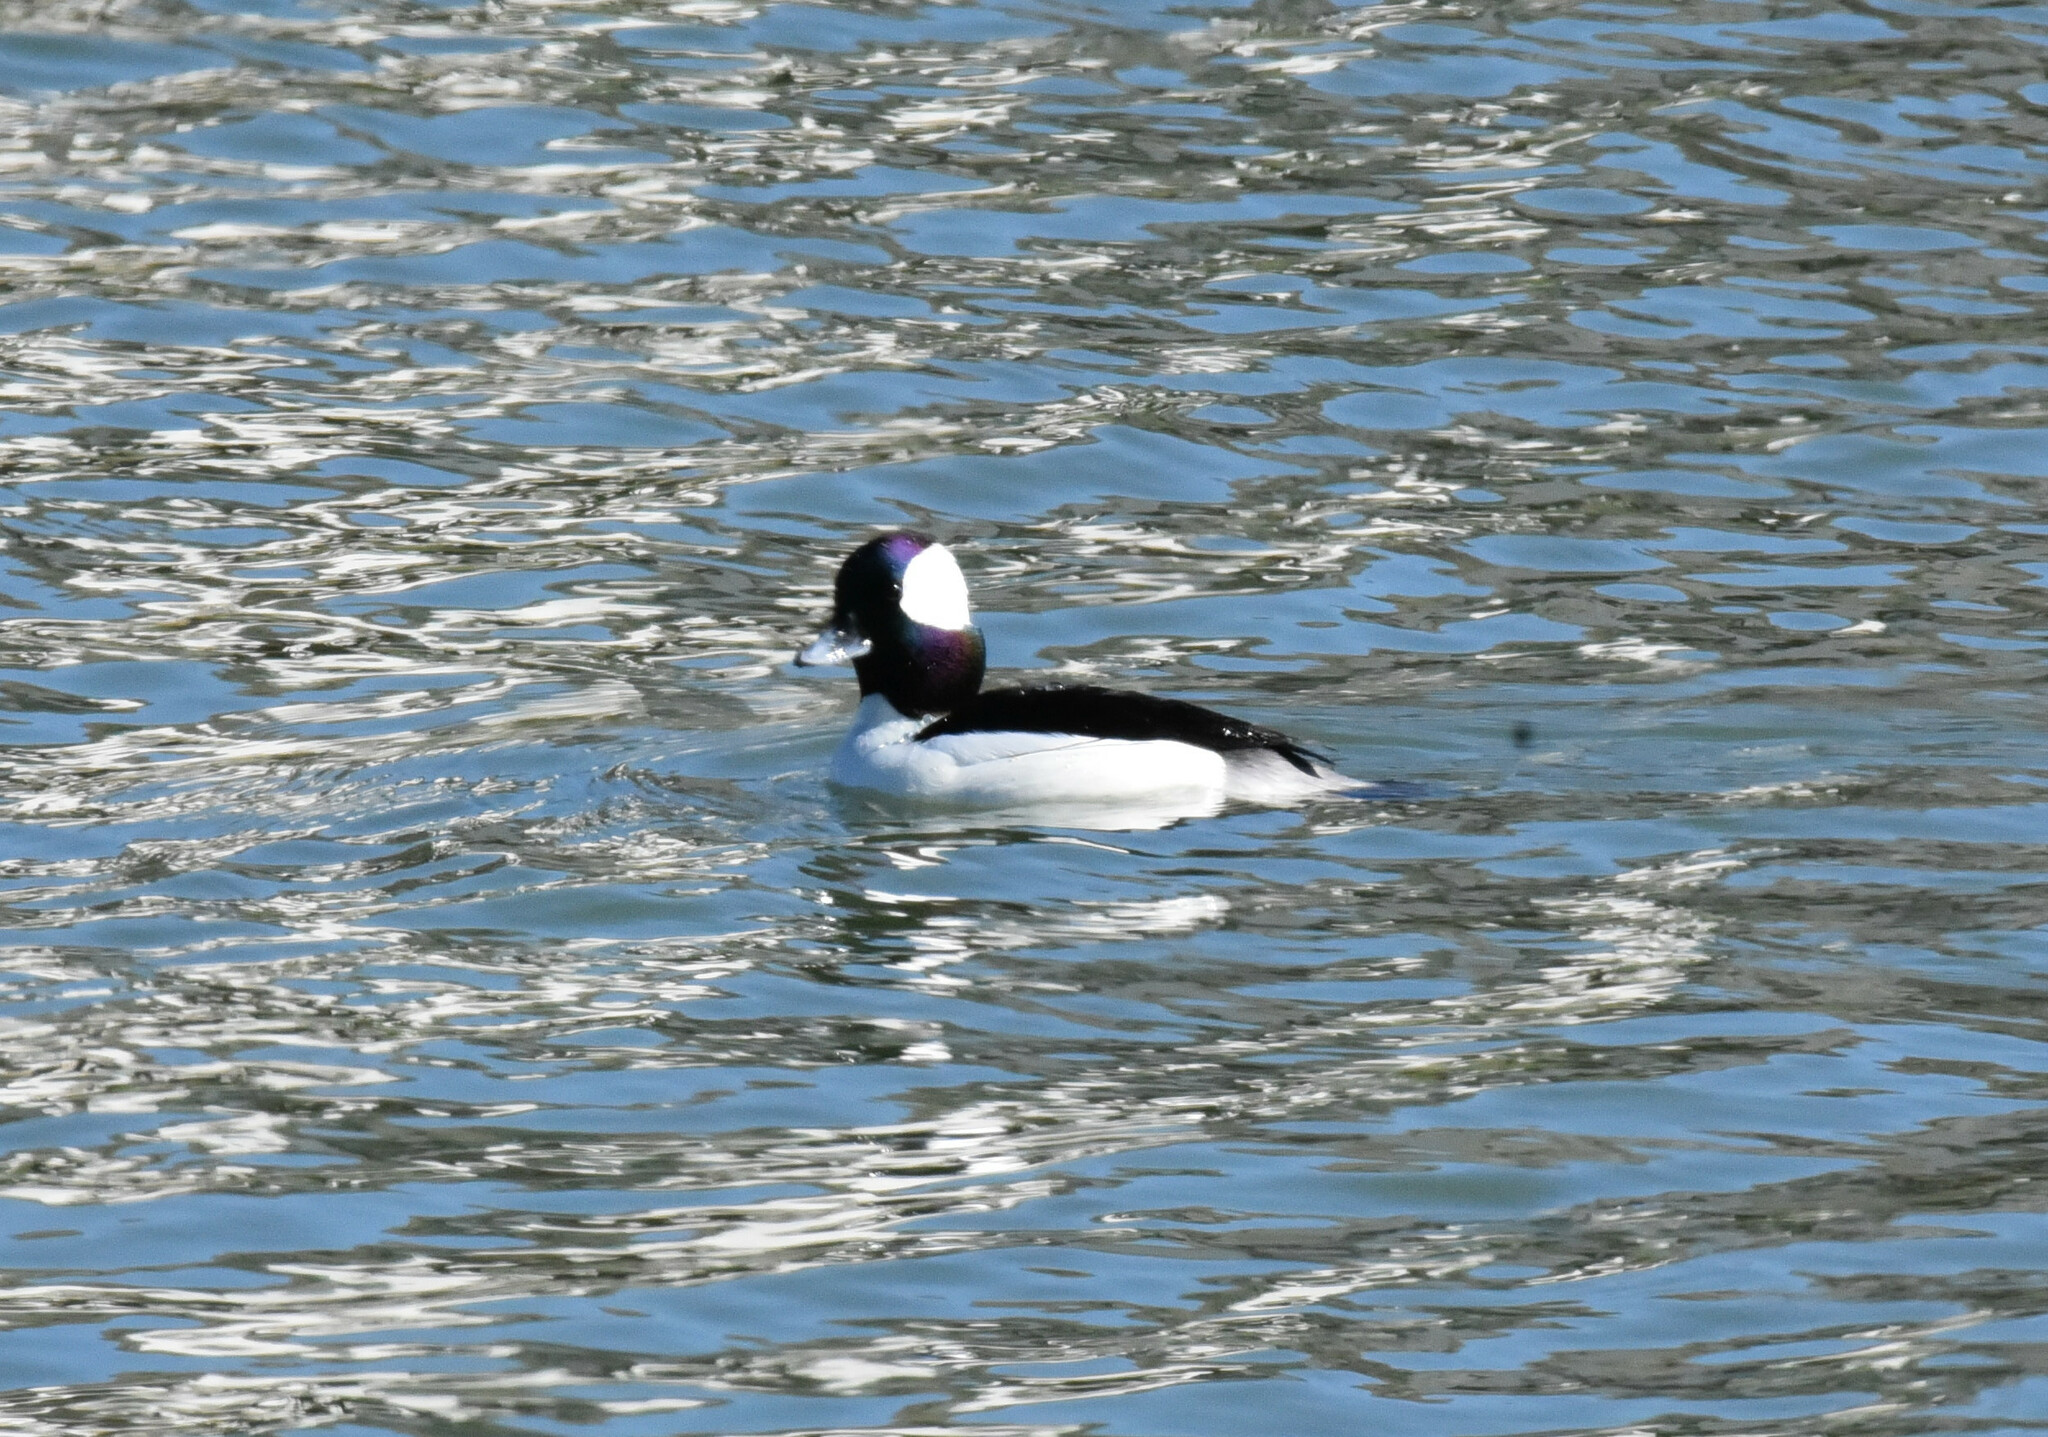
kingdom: Animalia
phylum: Chordata
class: Aves
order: Anseriformes
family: Anatidae
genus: Bucephala
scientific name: Bucephala albeola
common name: Bufflehead
